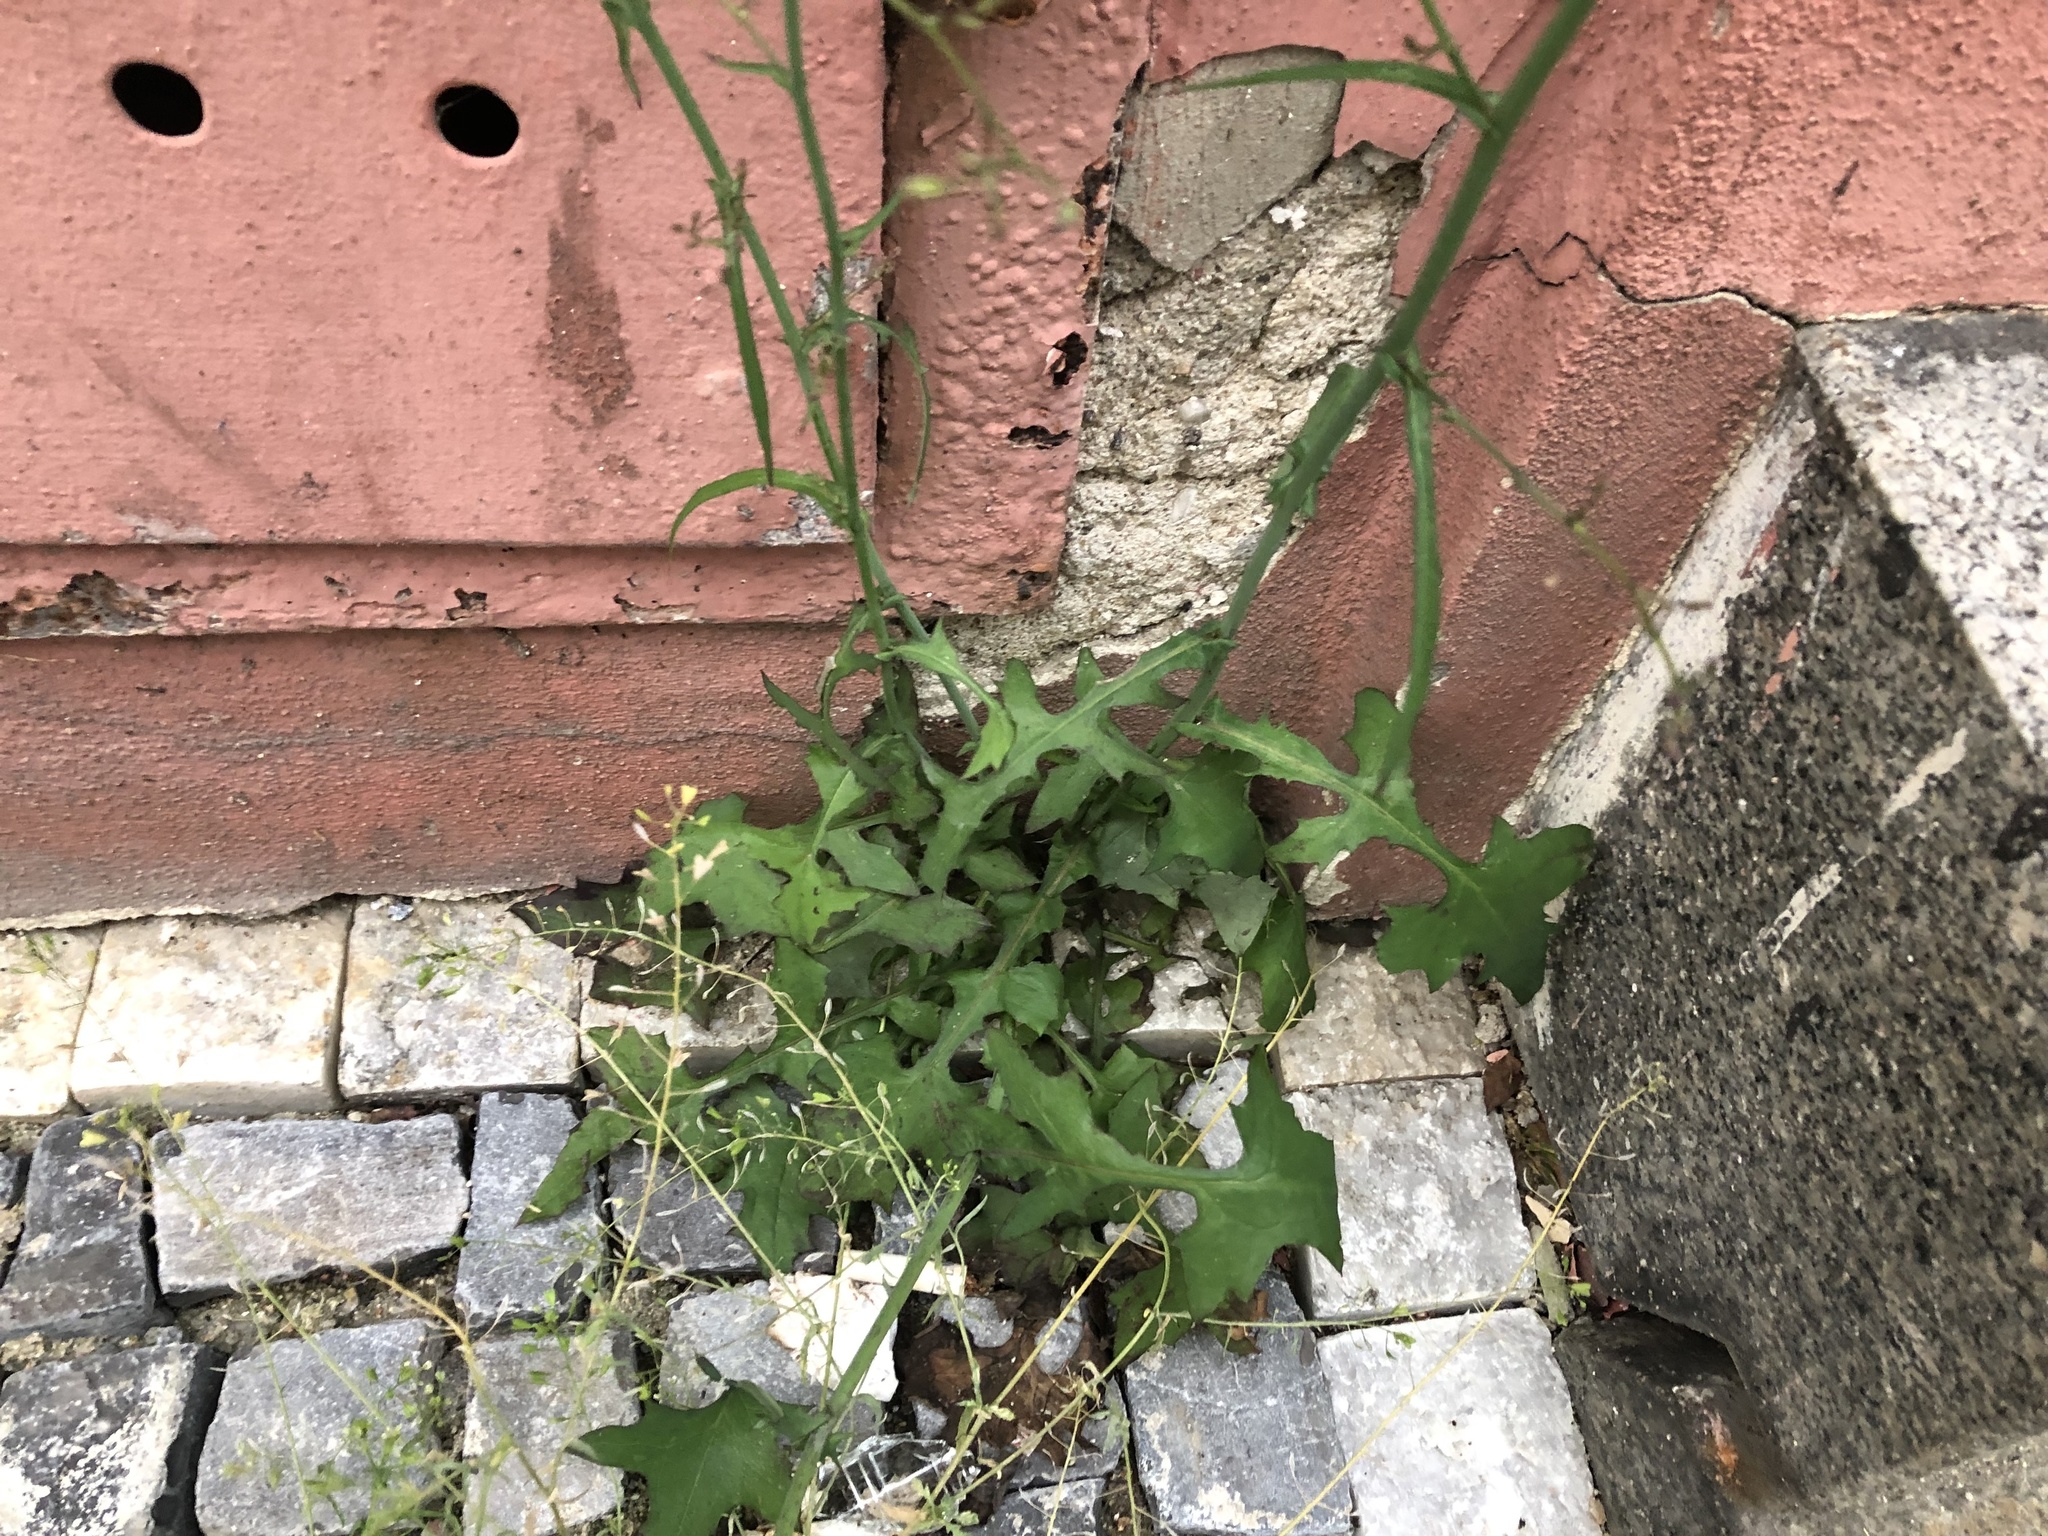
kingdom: Plantae
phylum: Tracheophyta
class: Magnoliopsida
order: Asterales
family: Asteraceae
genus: Mycelis
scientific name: Mycelis muralis
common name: Wall lettuce
